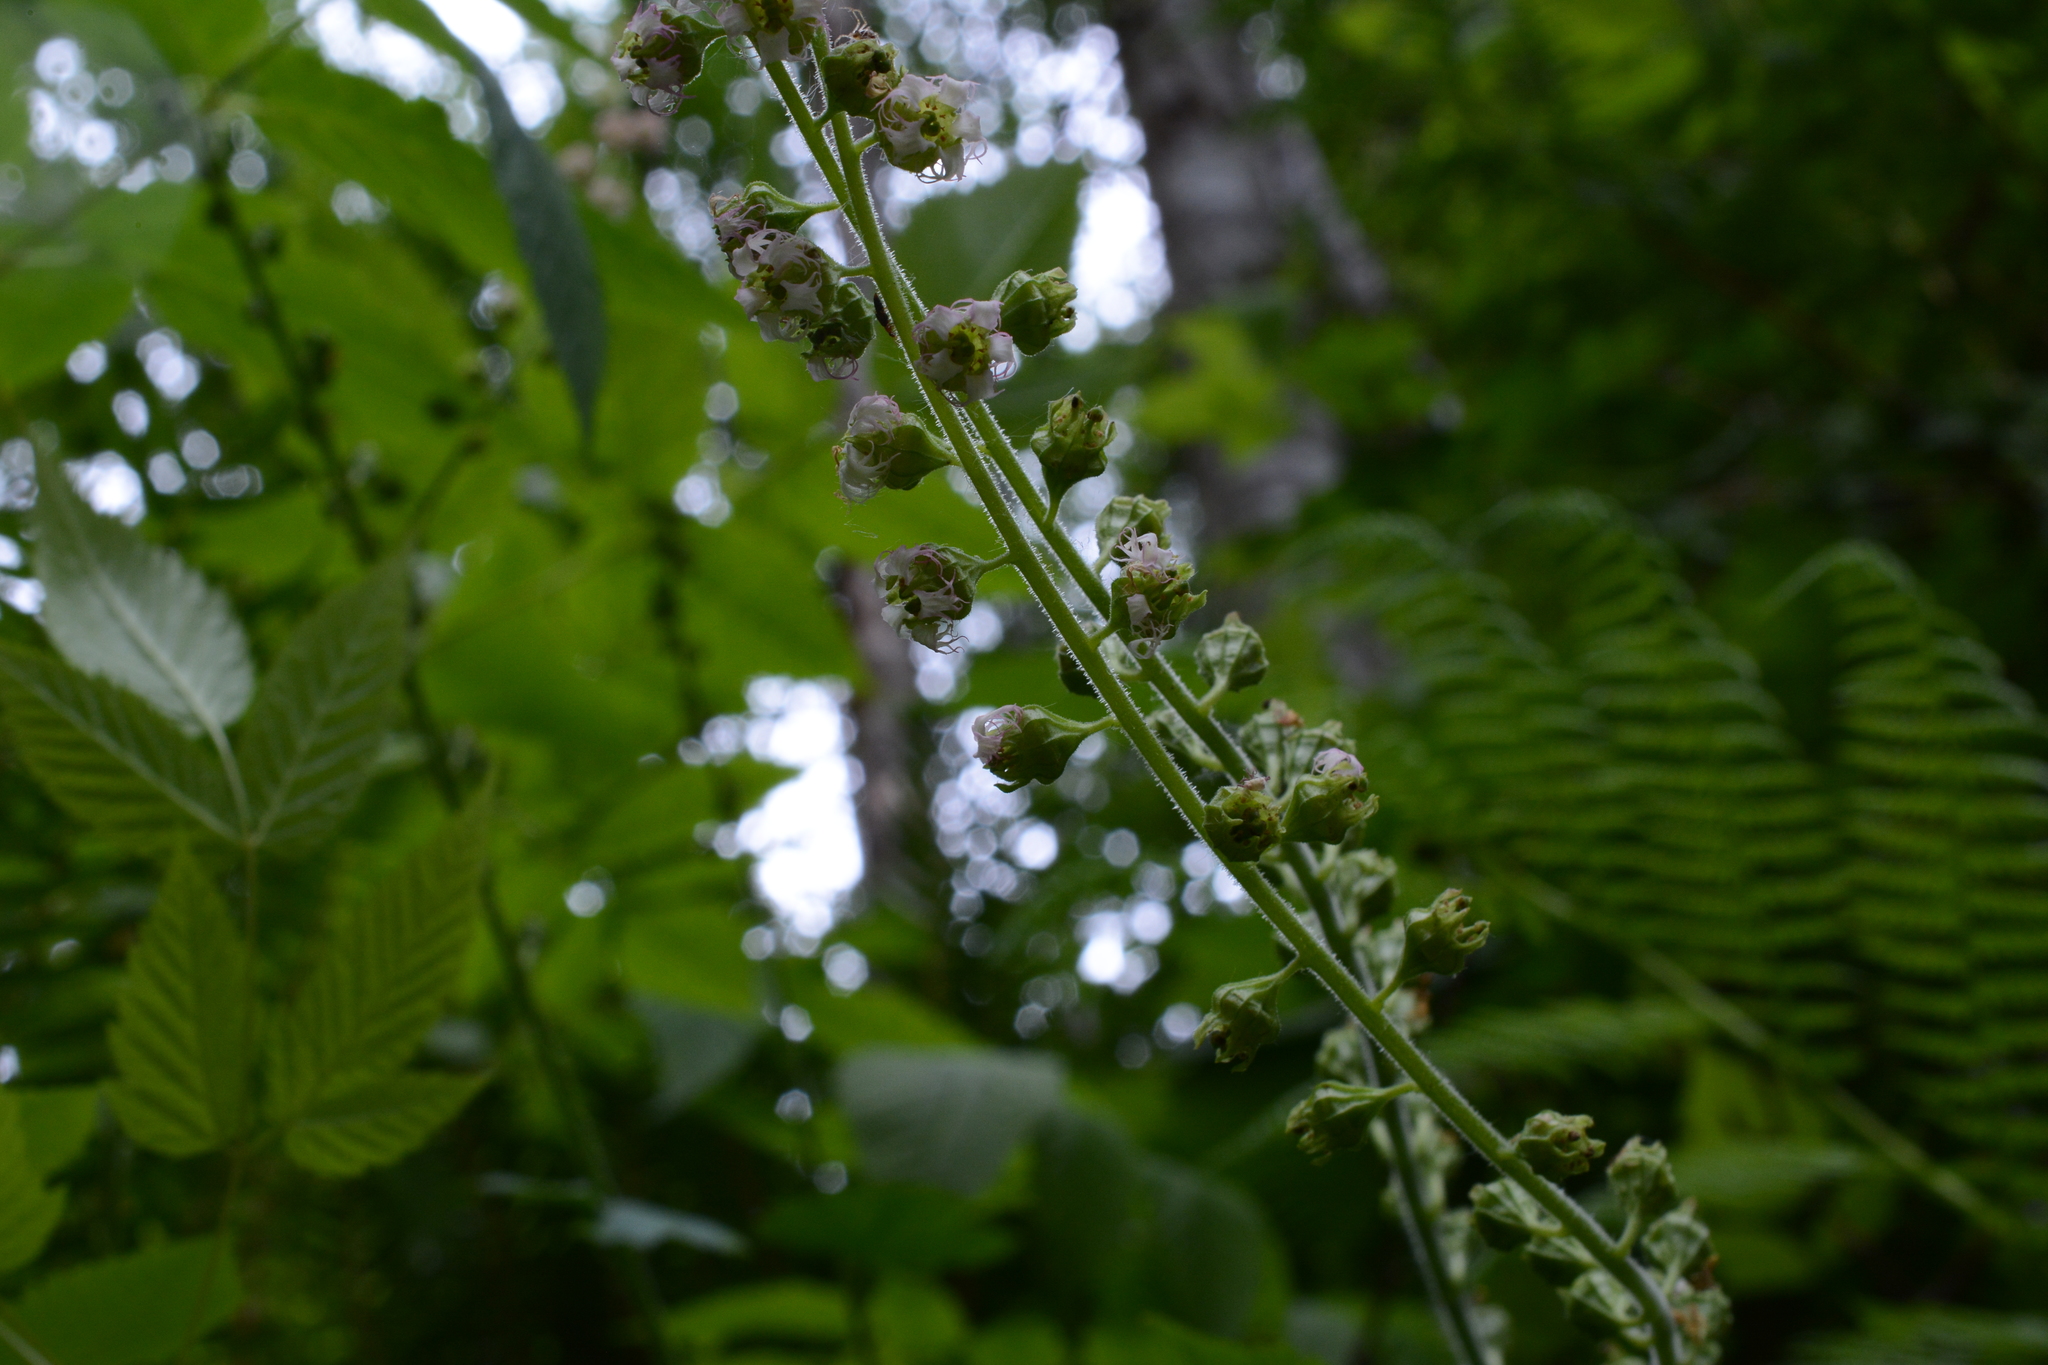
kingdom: Plantae
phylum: Tracheophyta
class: Magnoliopsida
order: Saxifragales
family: Saxifragaceae
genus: Tellima
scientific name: Tellima grandiflora
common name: Fringecups
